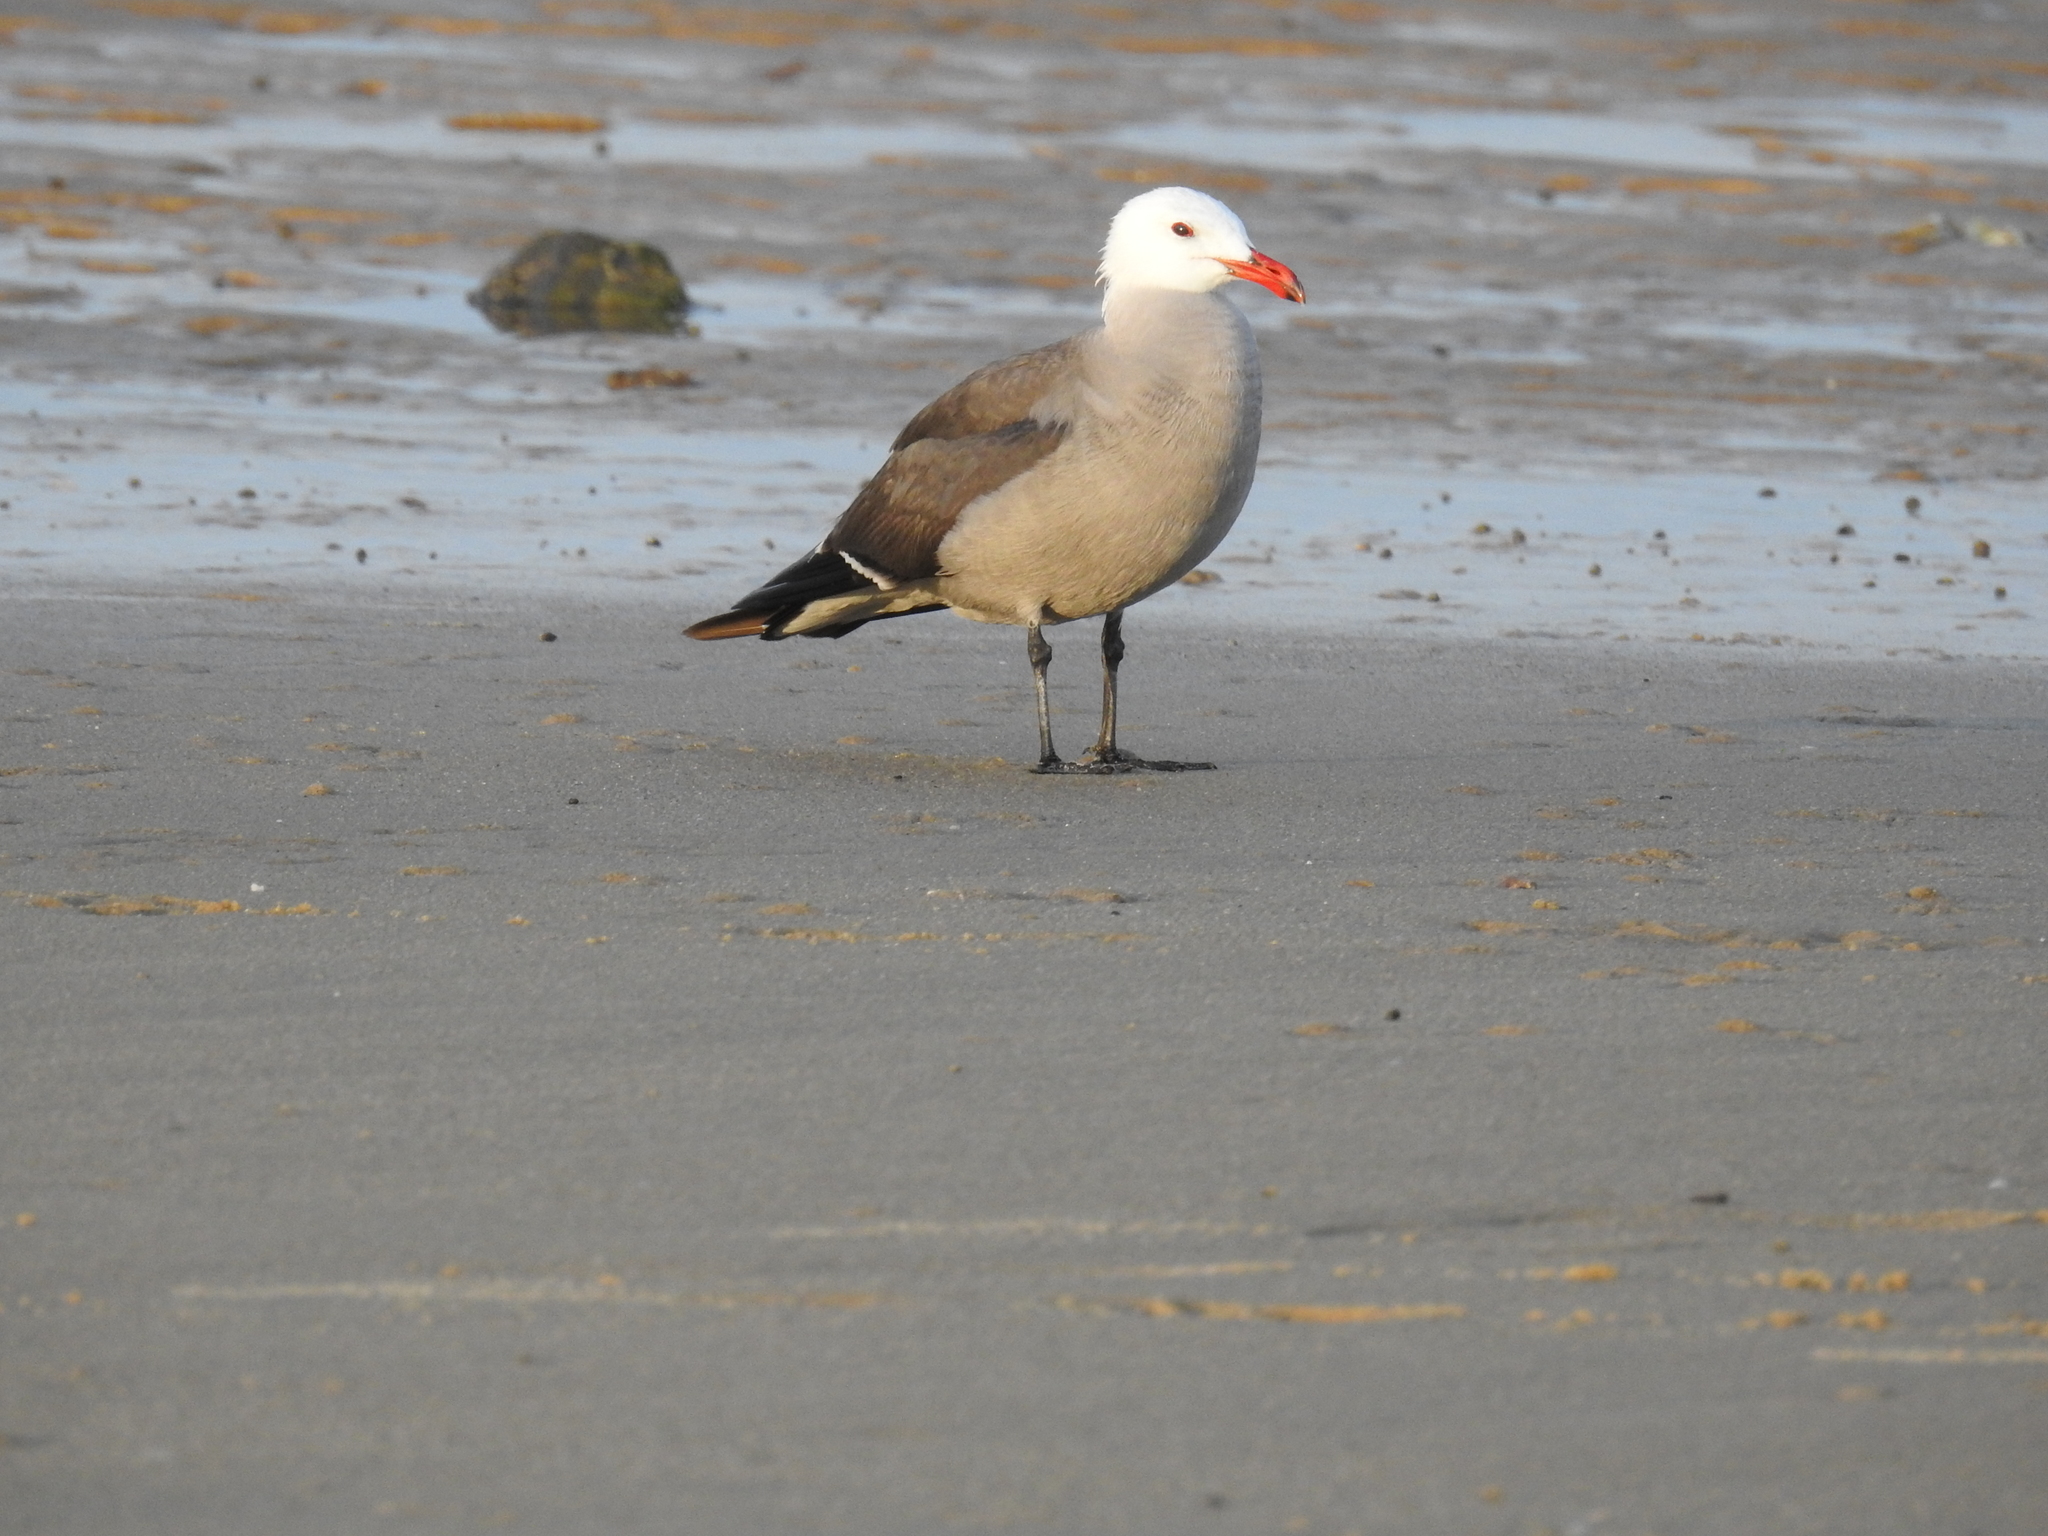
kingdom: Animalia
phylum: Chordata
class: Aves
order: Charadriiformes
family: Laridae
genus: Larus
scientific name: Larus heermanni
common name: Heermann's gull
